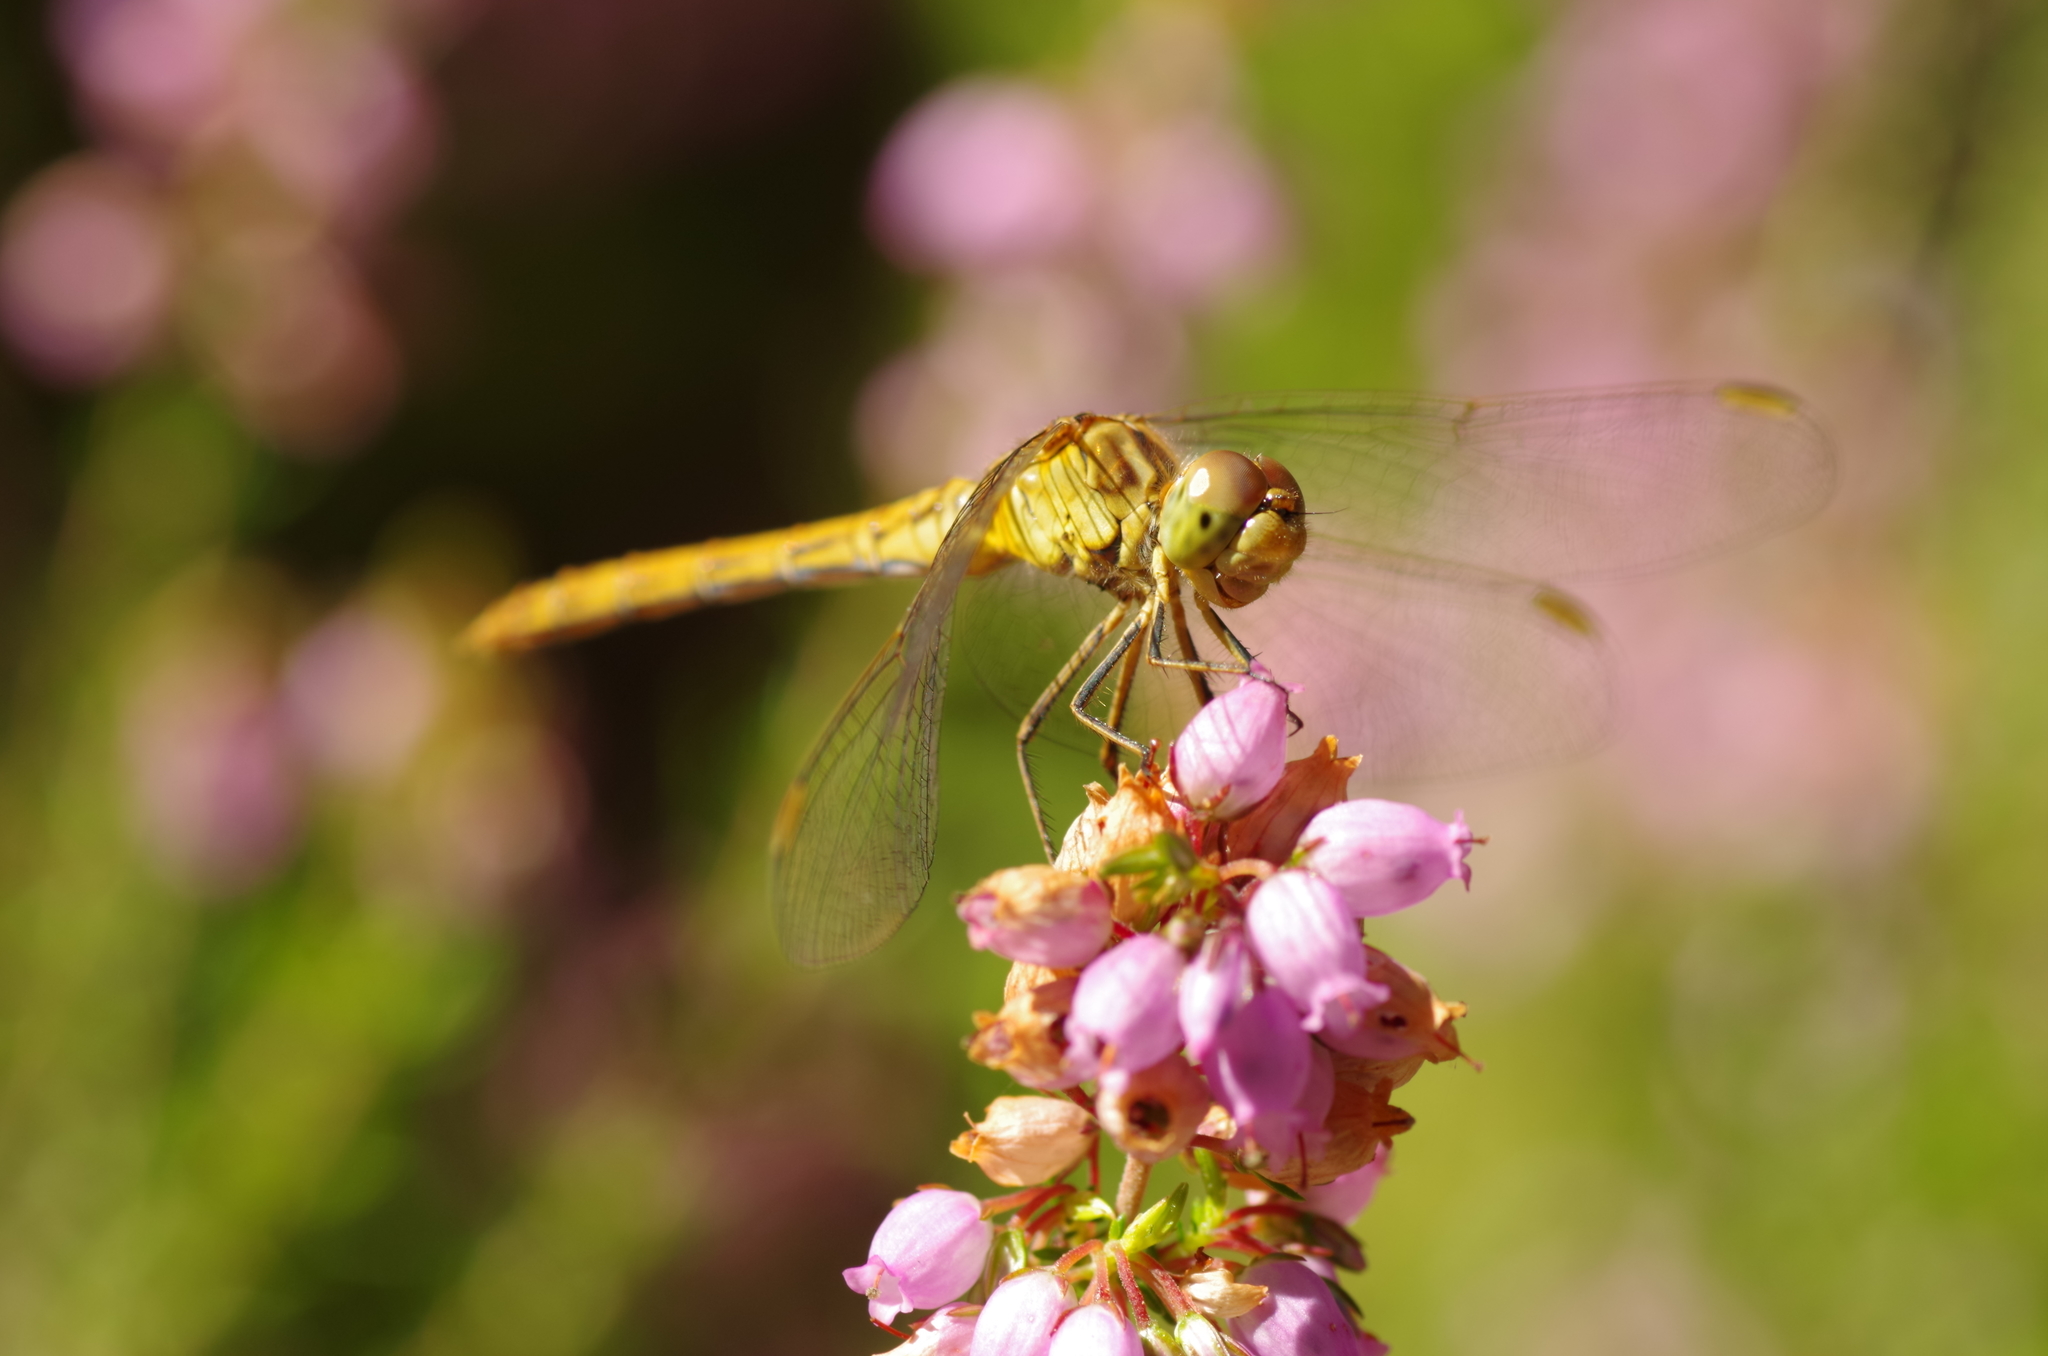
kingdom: Animalia
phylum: Arthropoda
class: Insecta
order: Odonata
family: Libellulidae
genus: Sympetrum
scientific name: Sympetrum meridionale
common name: Southern darter
